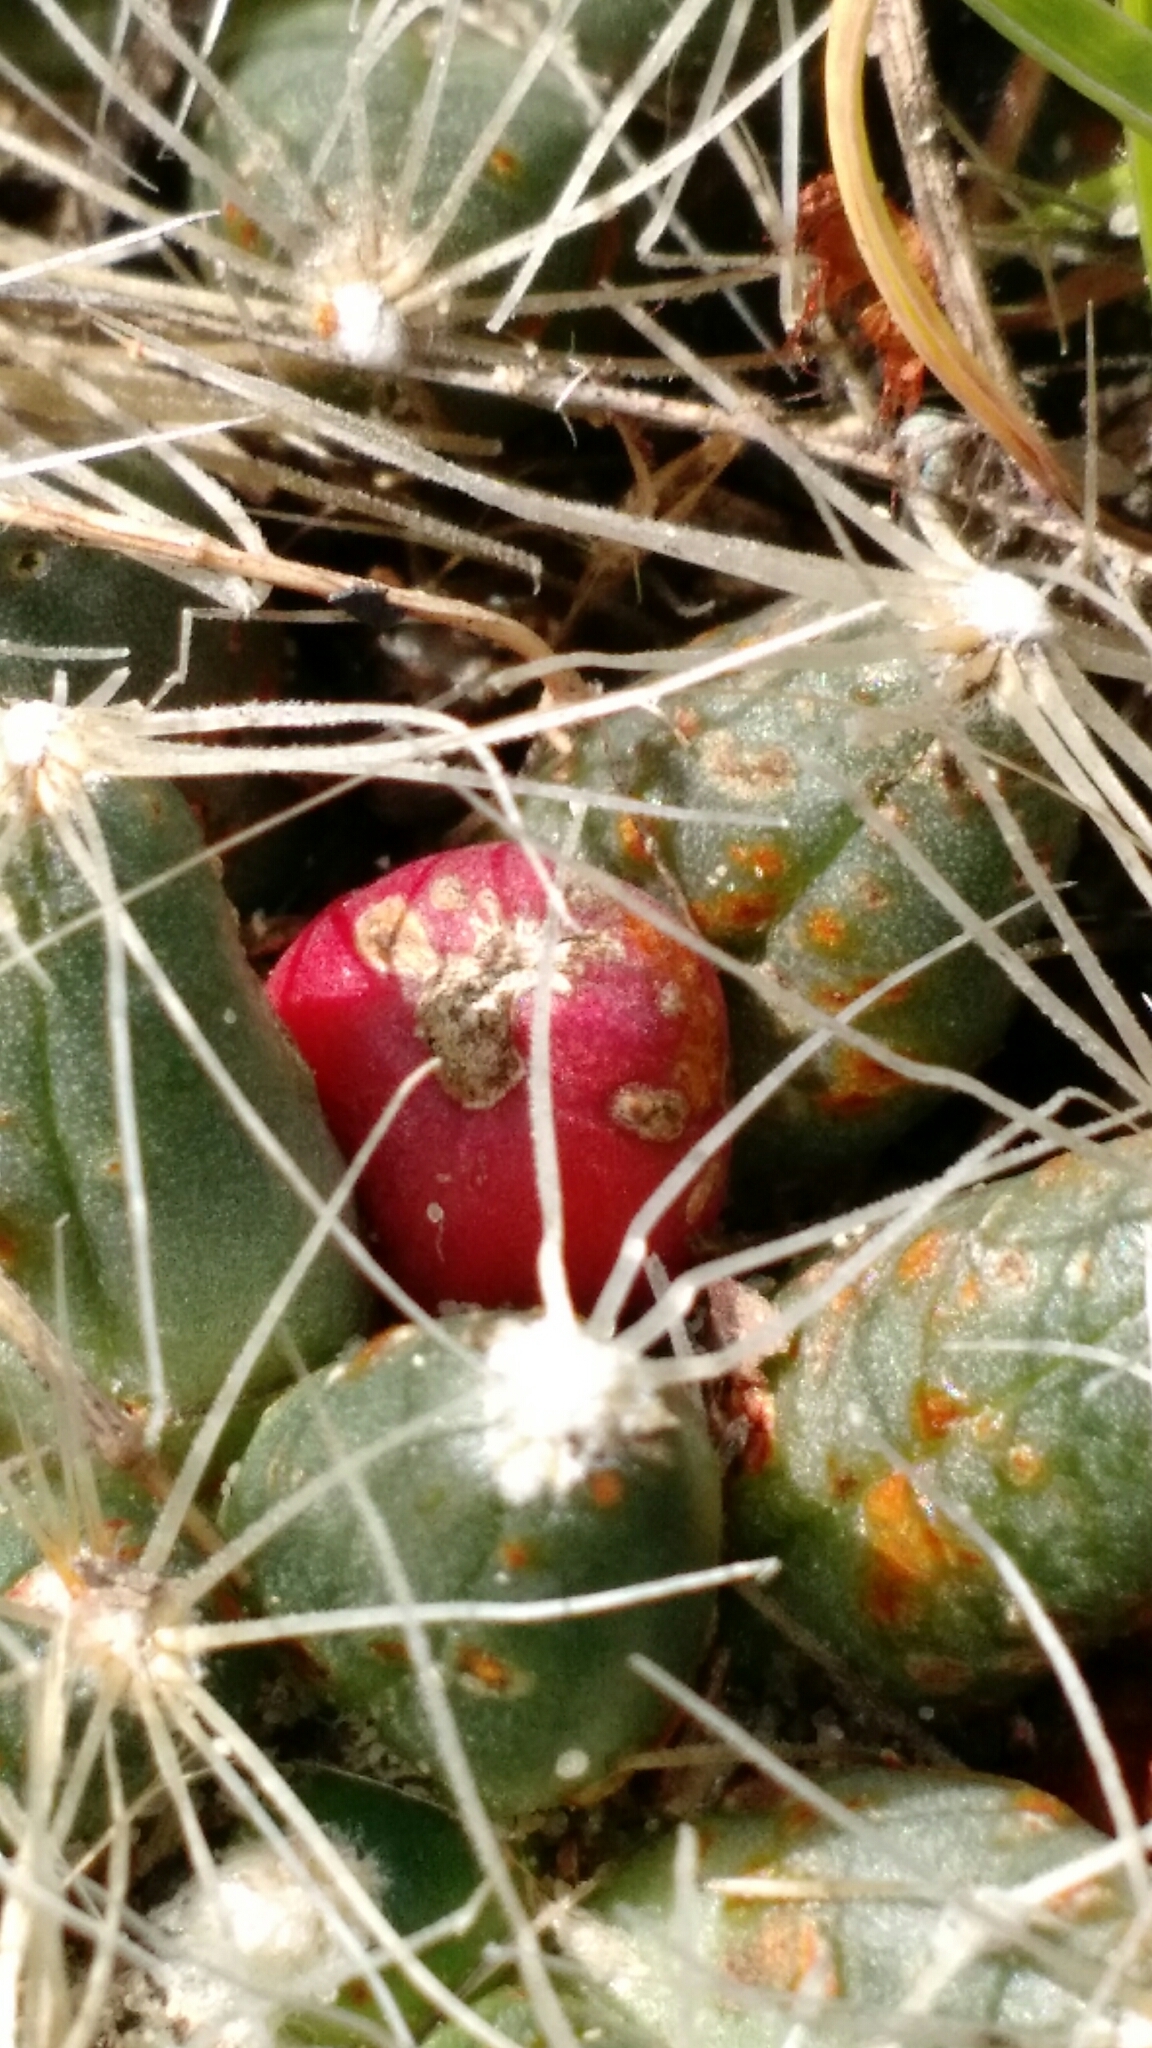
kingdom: Plantae
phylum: Tracheophyta
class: Magnoliopsida
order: Caryophyllales
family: Cactaceae
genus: Pelecyphora
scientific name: Pelecyphora missouriensis
